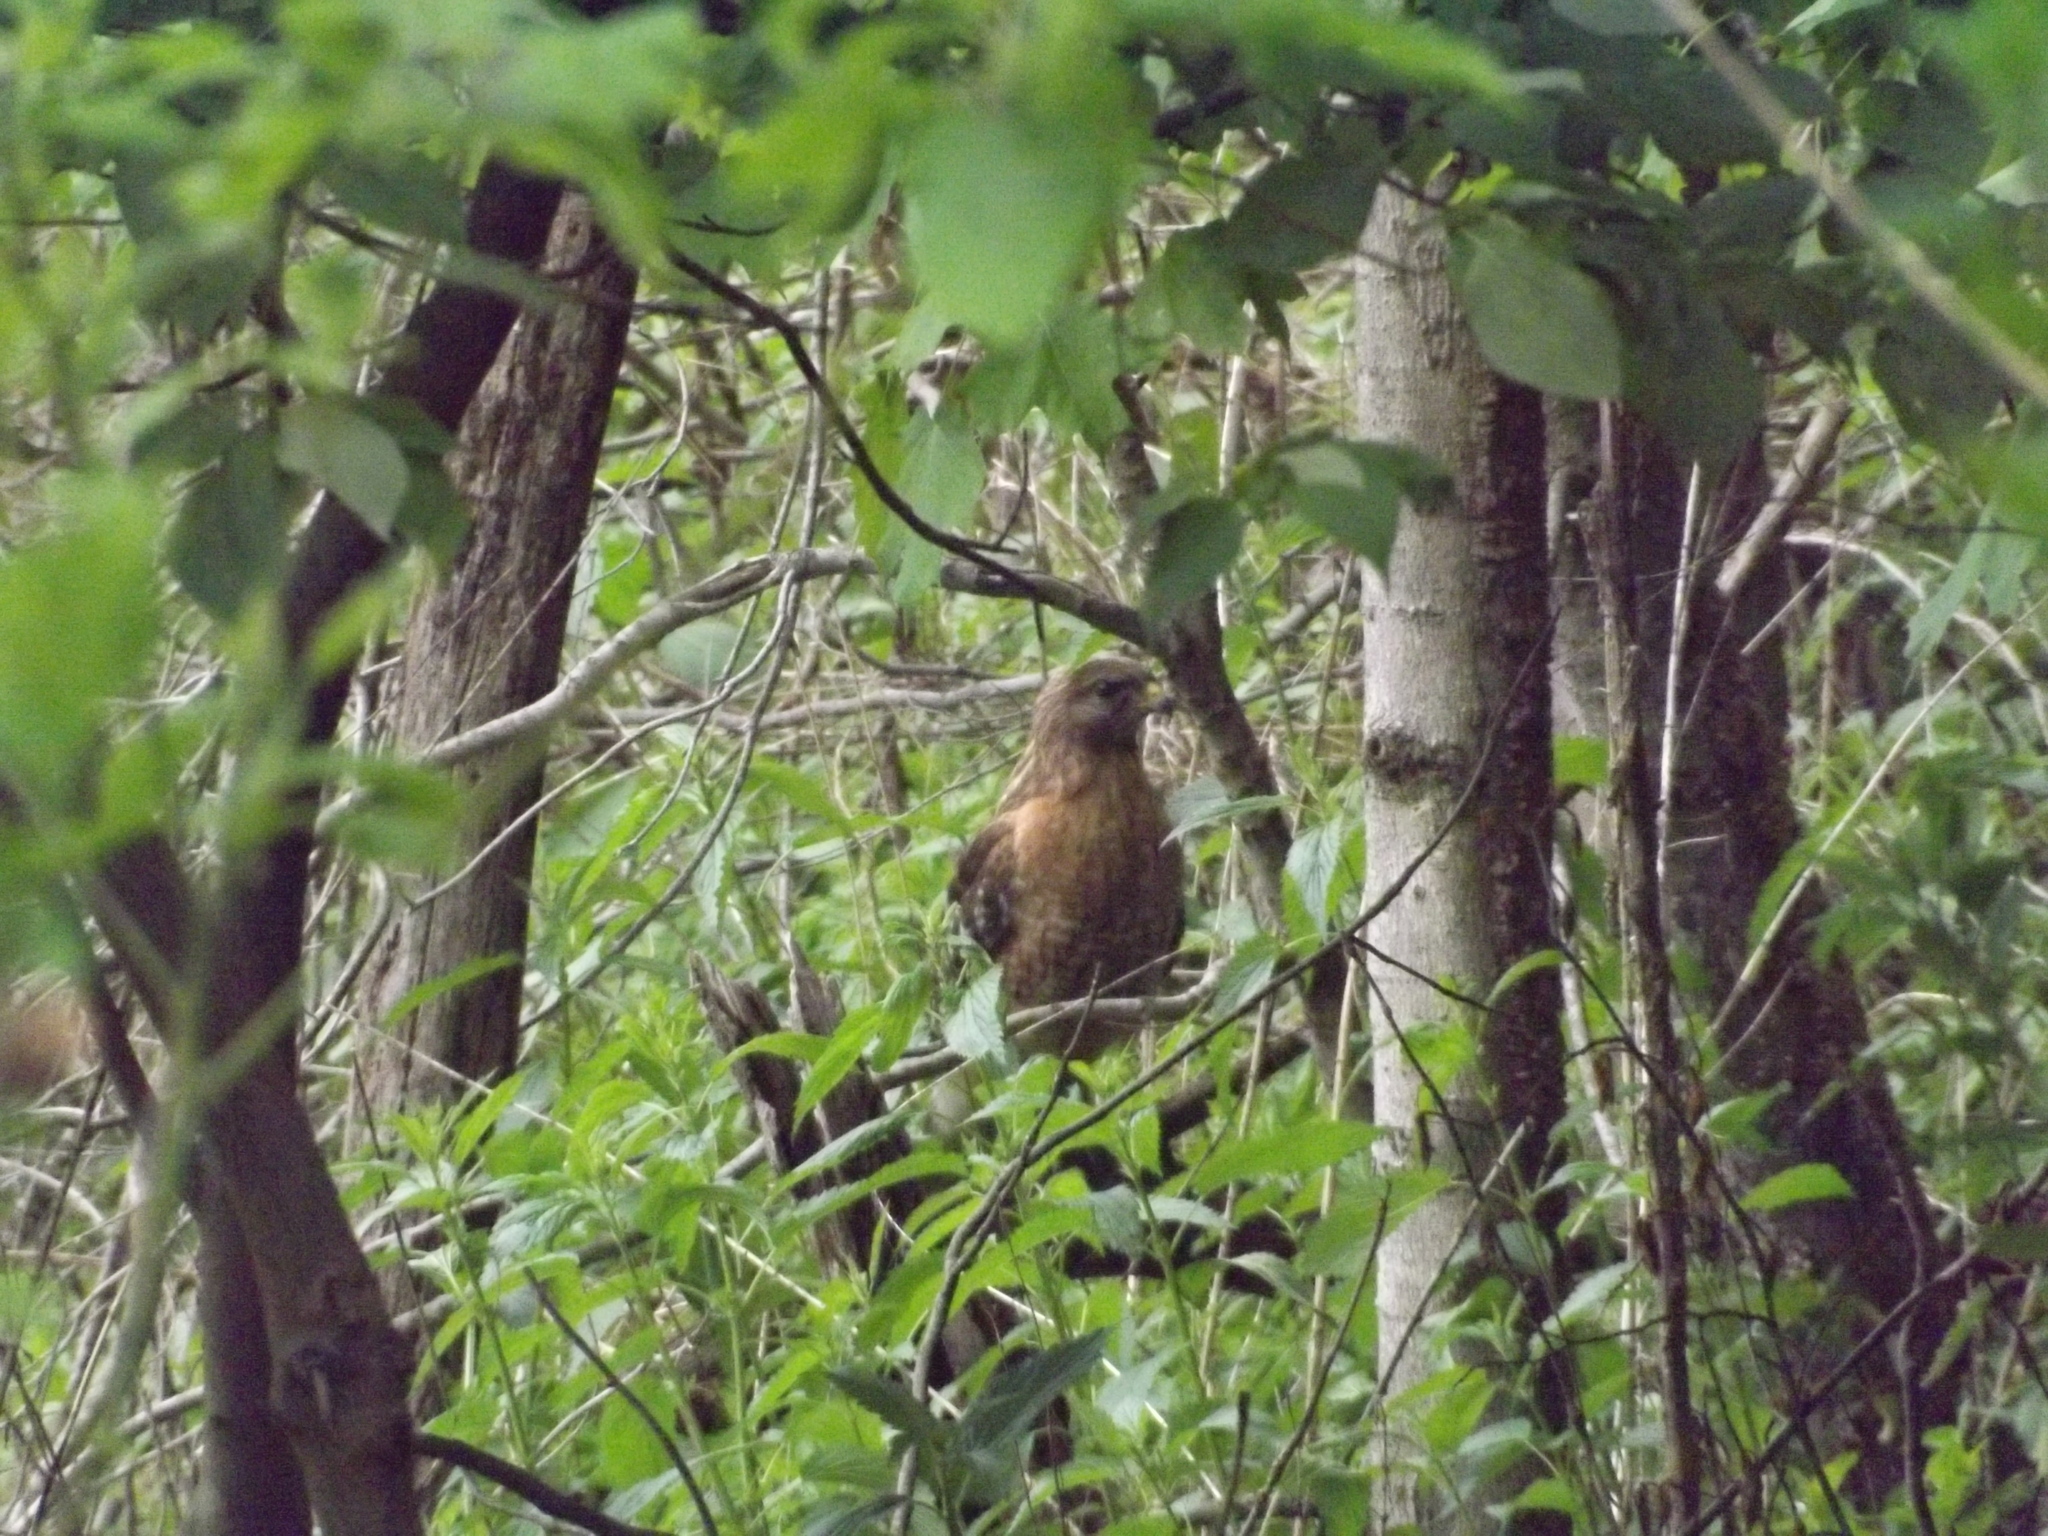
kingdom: Animalia
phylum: Chordata
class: Aves
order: Accipitriformes
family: Accipitridae
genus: Buteo
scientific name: Buteo lineatus
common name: Red-shouldered hawk
